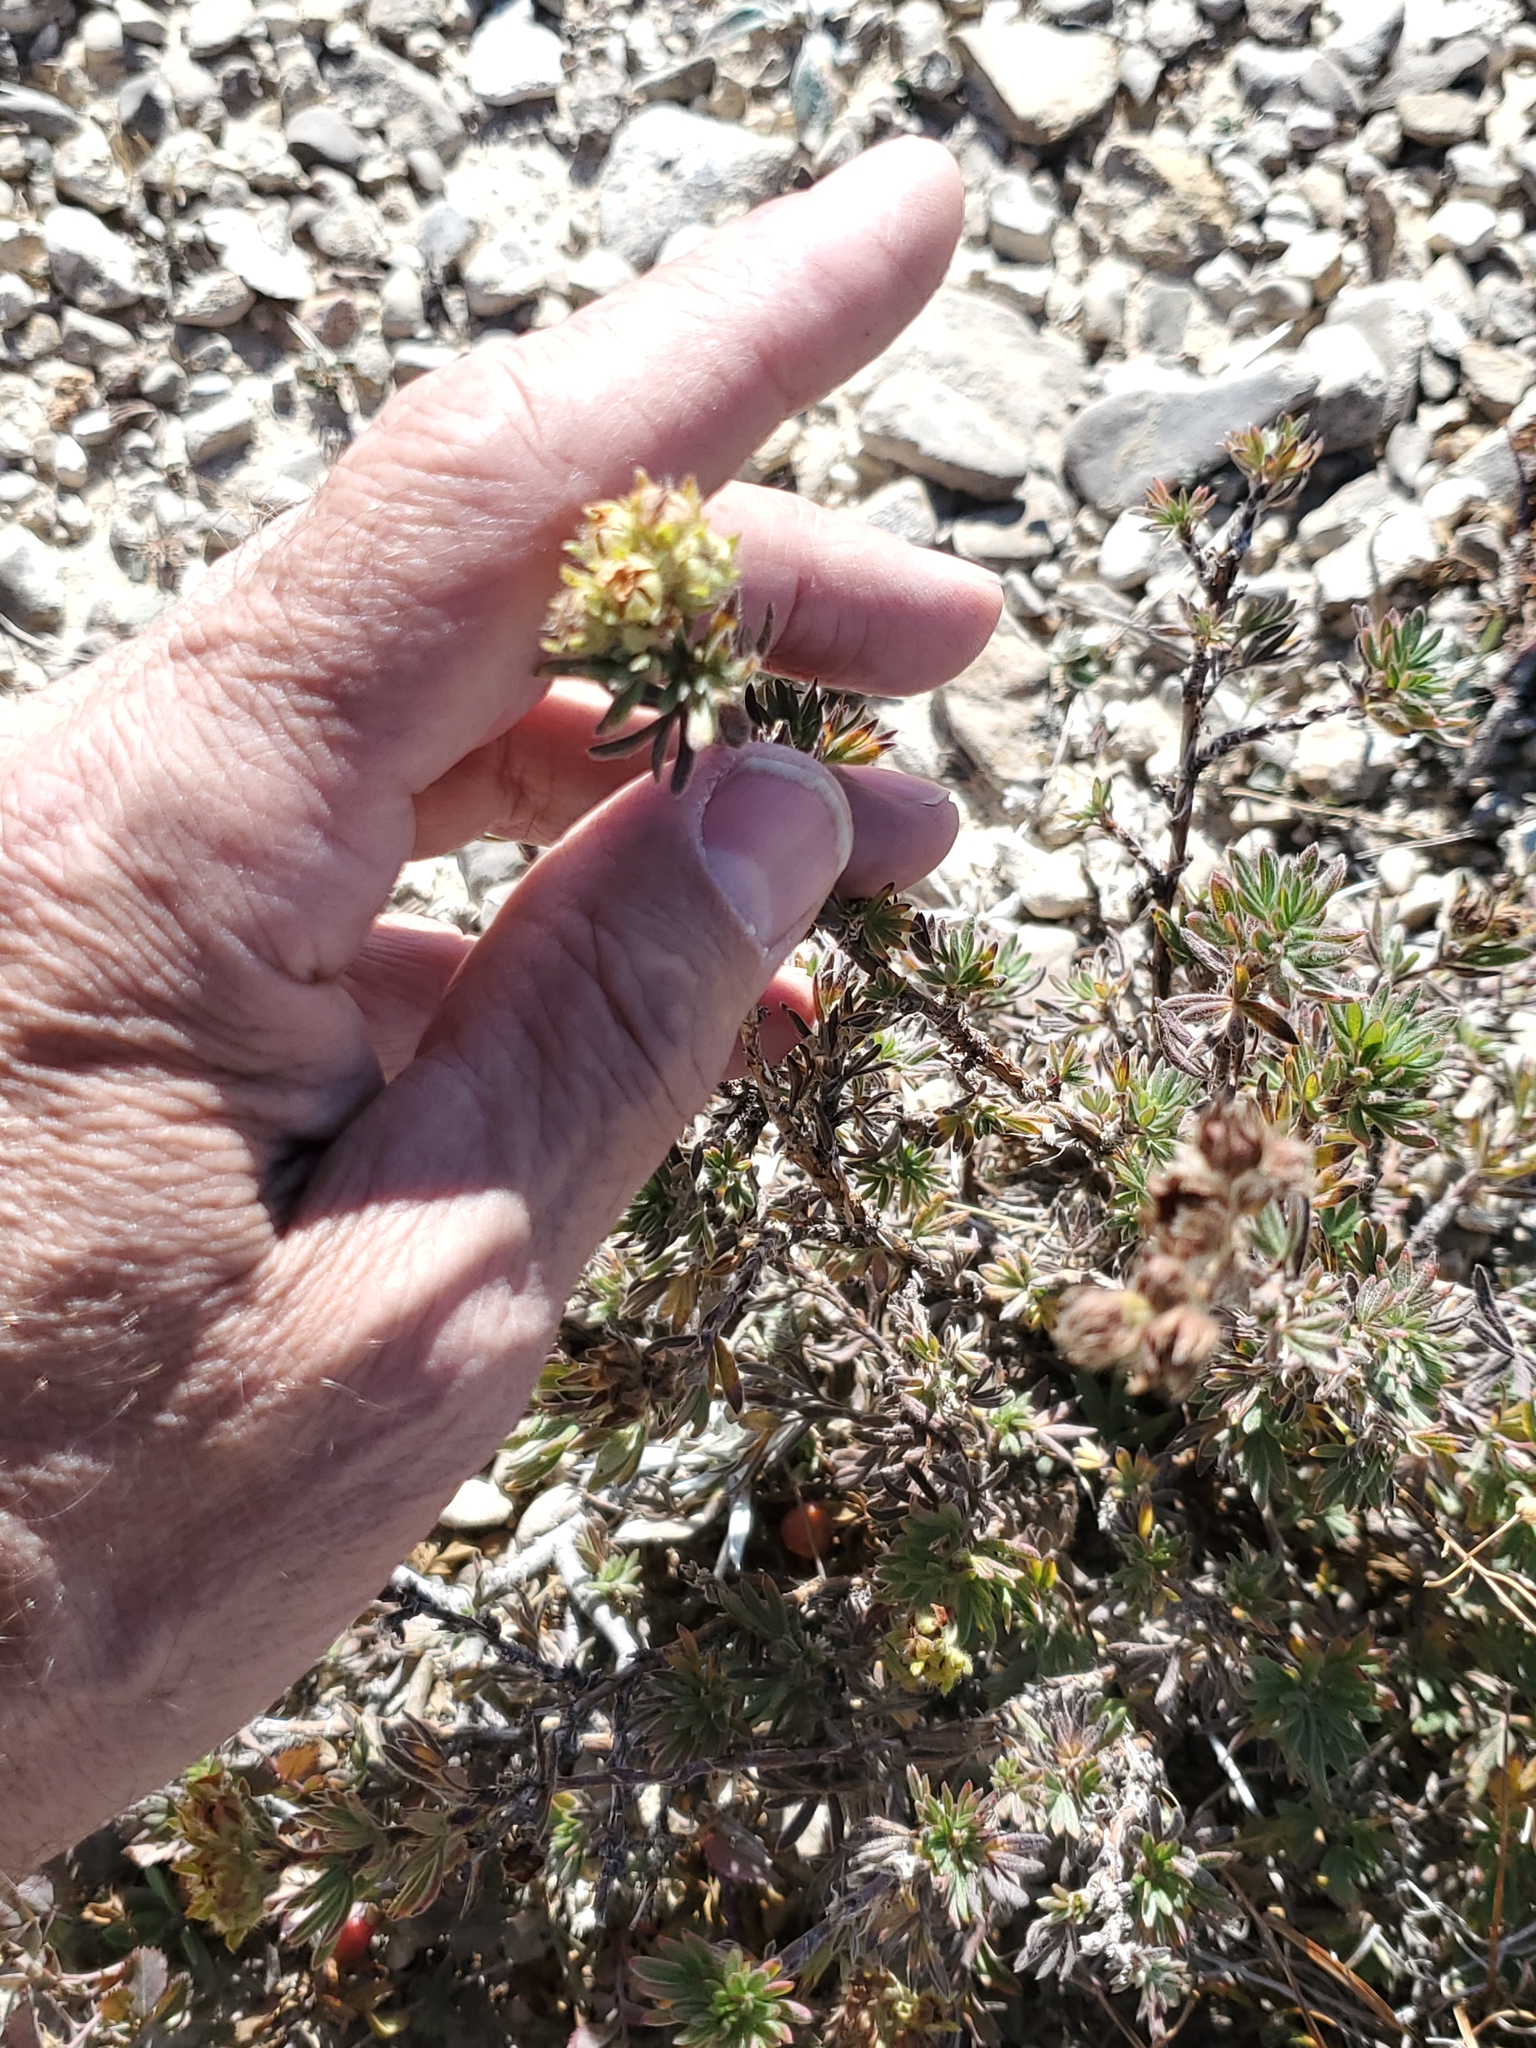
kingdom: Plantae
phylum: Tracheophyta
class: Magnoliopsida
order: Rosales
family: Rosaceae
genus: Dasiphora
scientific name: Dasiphora fruticosa
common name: Shrubby cinquefoil
